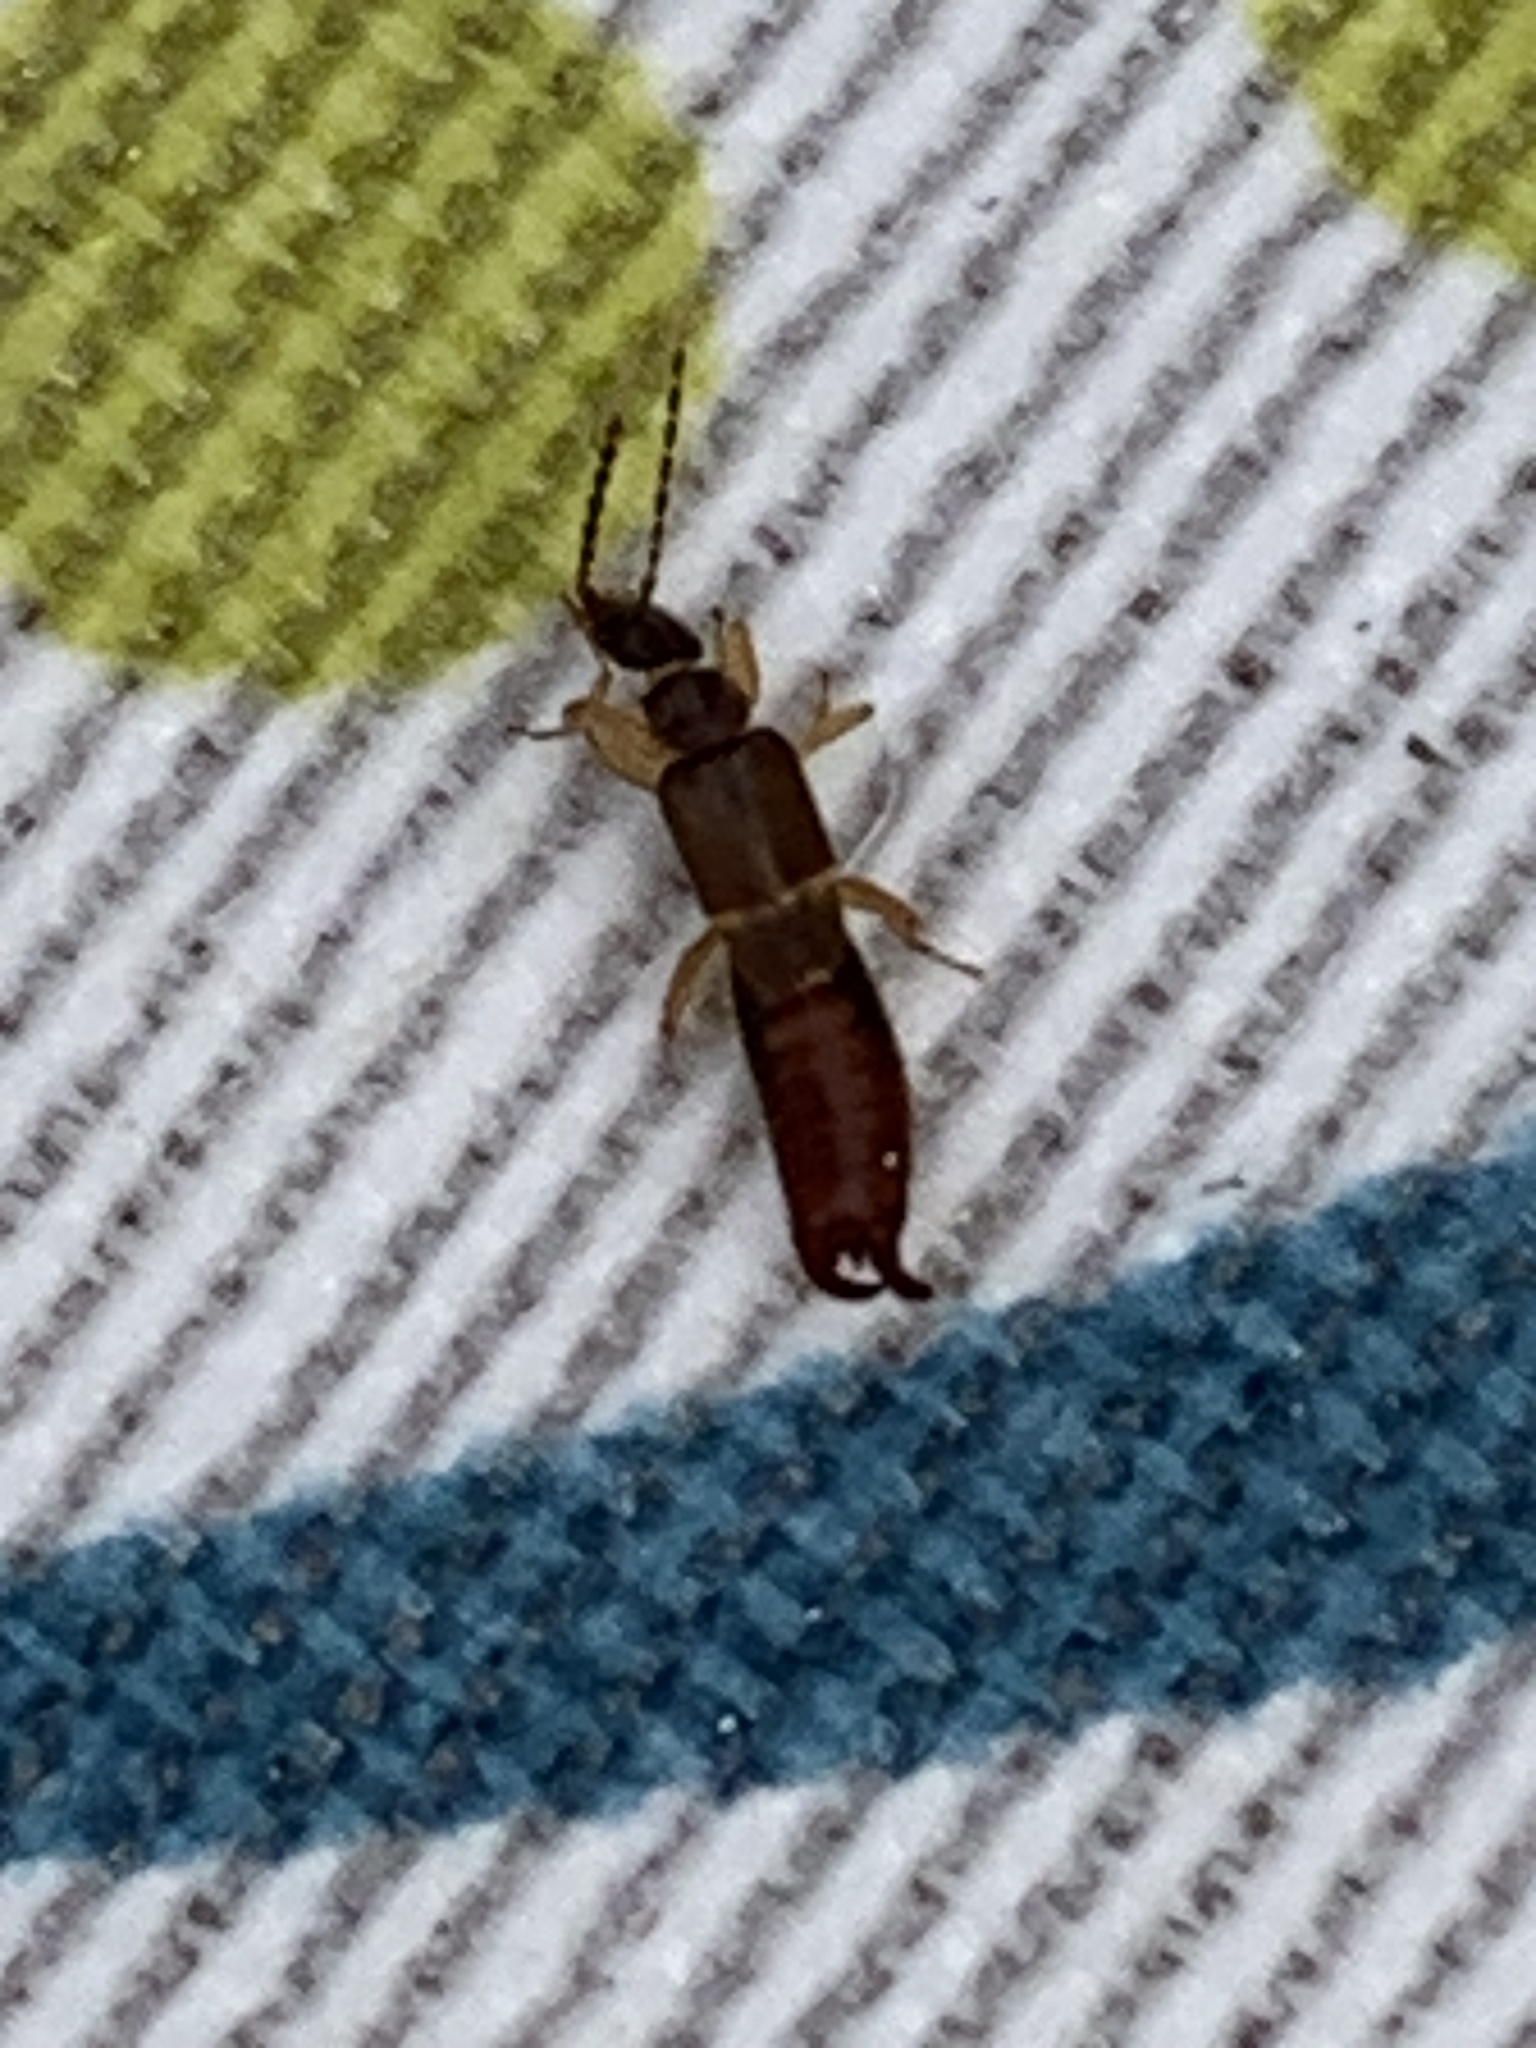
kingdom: Animalia
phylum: Arthropoda
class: Insecta
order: Dermaptera
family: Spongiphoridae
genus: Labia
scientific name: Labia minor
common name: Lesser earwig
